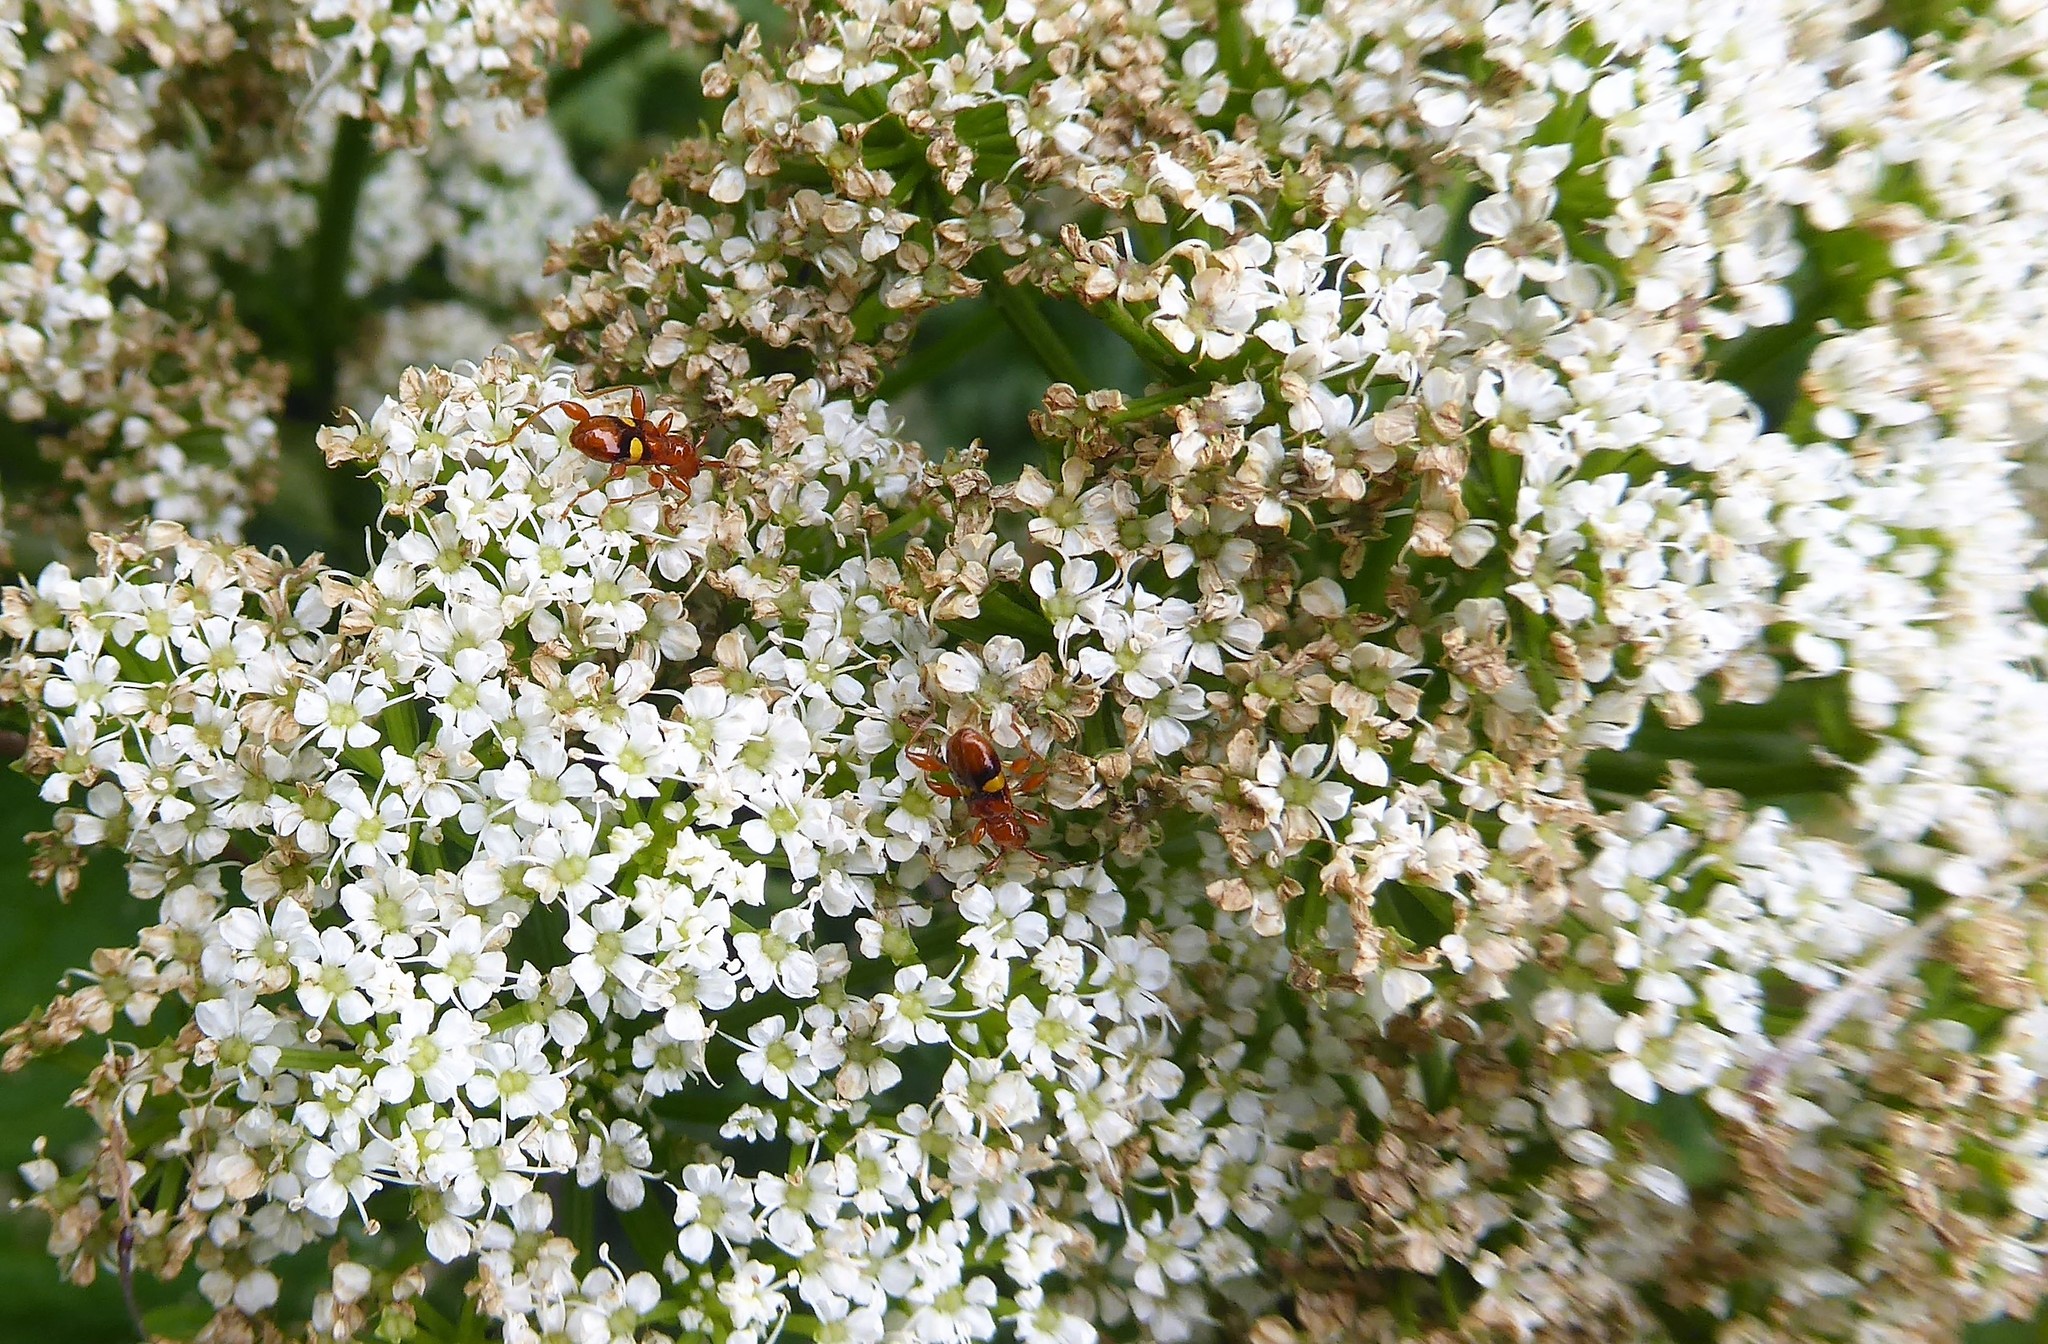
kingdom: Animalia
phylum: Arthropoda
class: Insecta
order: Coleoptera
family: Cerambycidae
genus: Zorion
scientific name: Zorion australe
